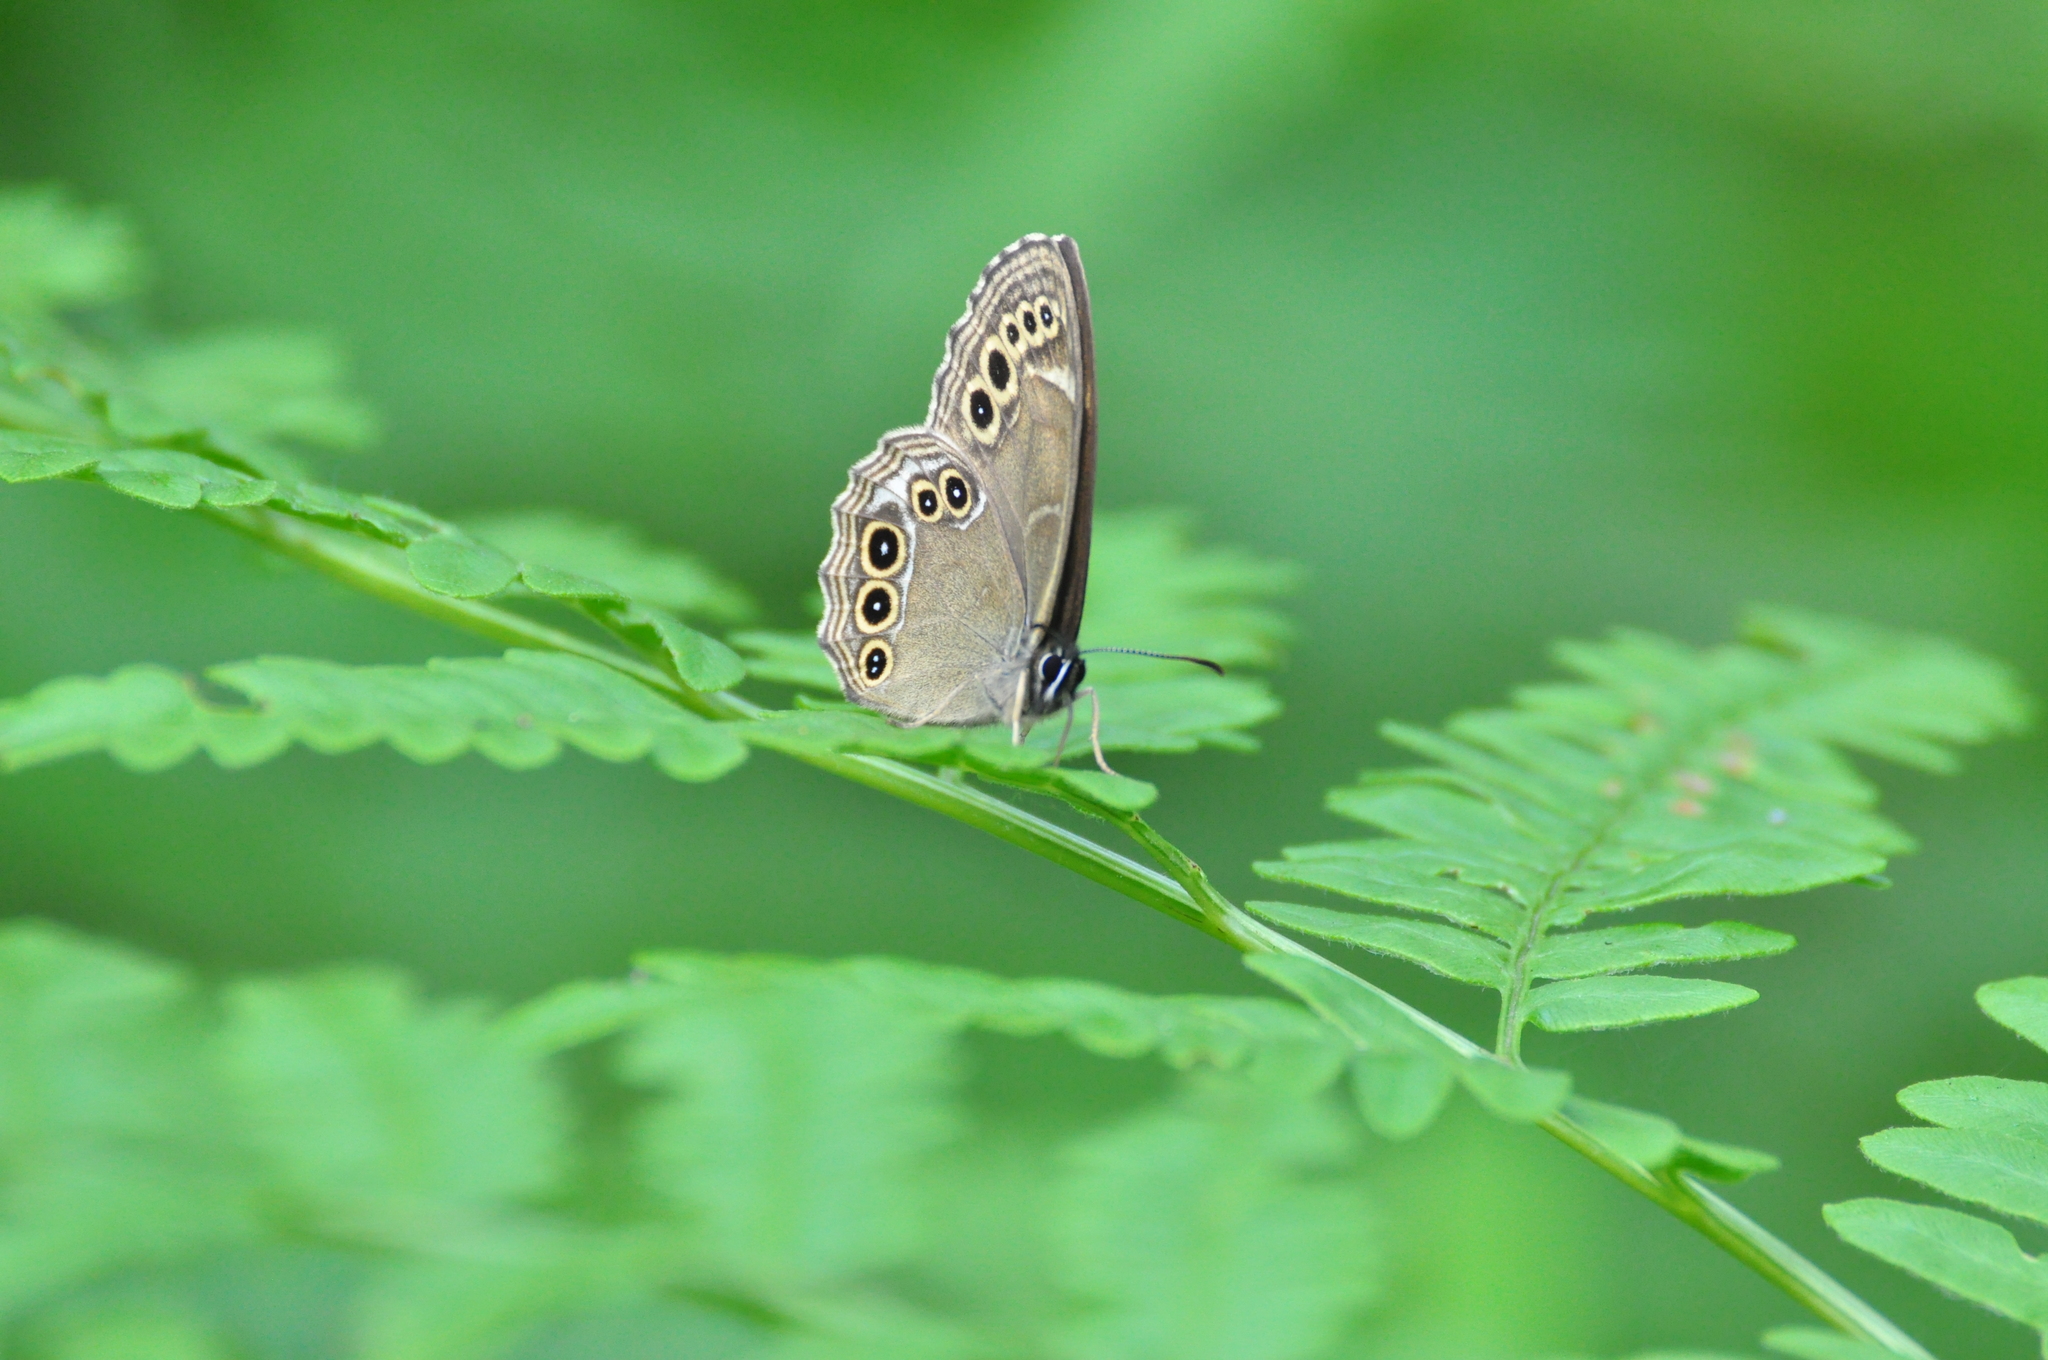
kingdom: Animalia
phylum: Arthropoda
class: Insecta
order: Lepidoptera
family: Nymphalidae
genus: Pararge
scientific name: Pararge Lopinga achine
